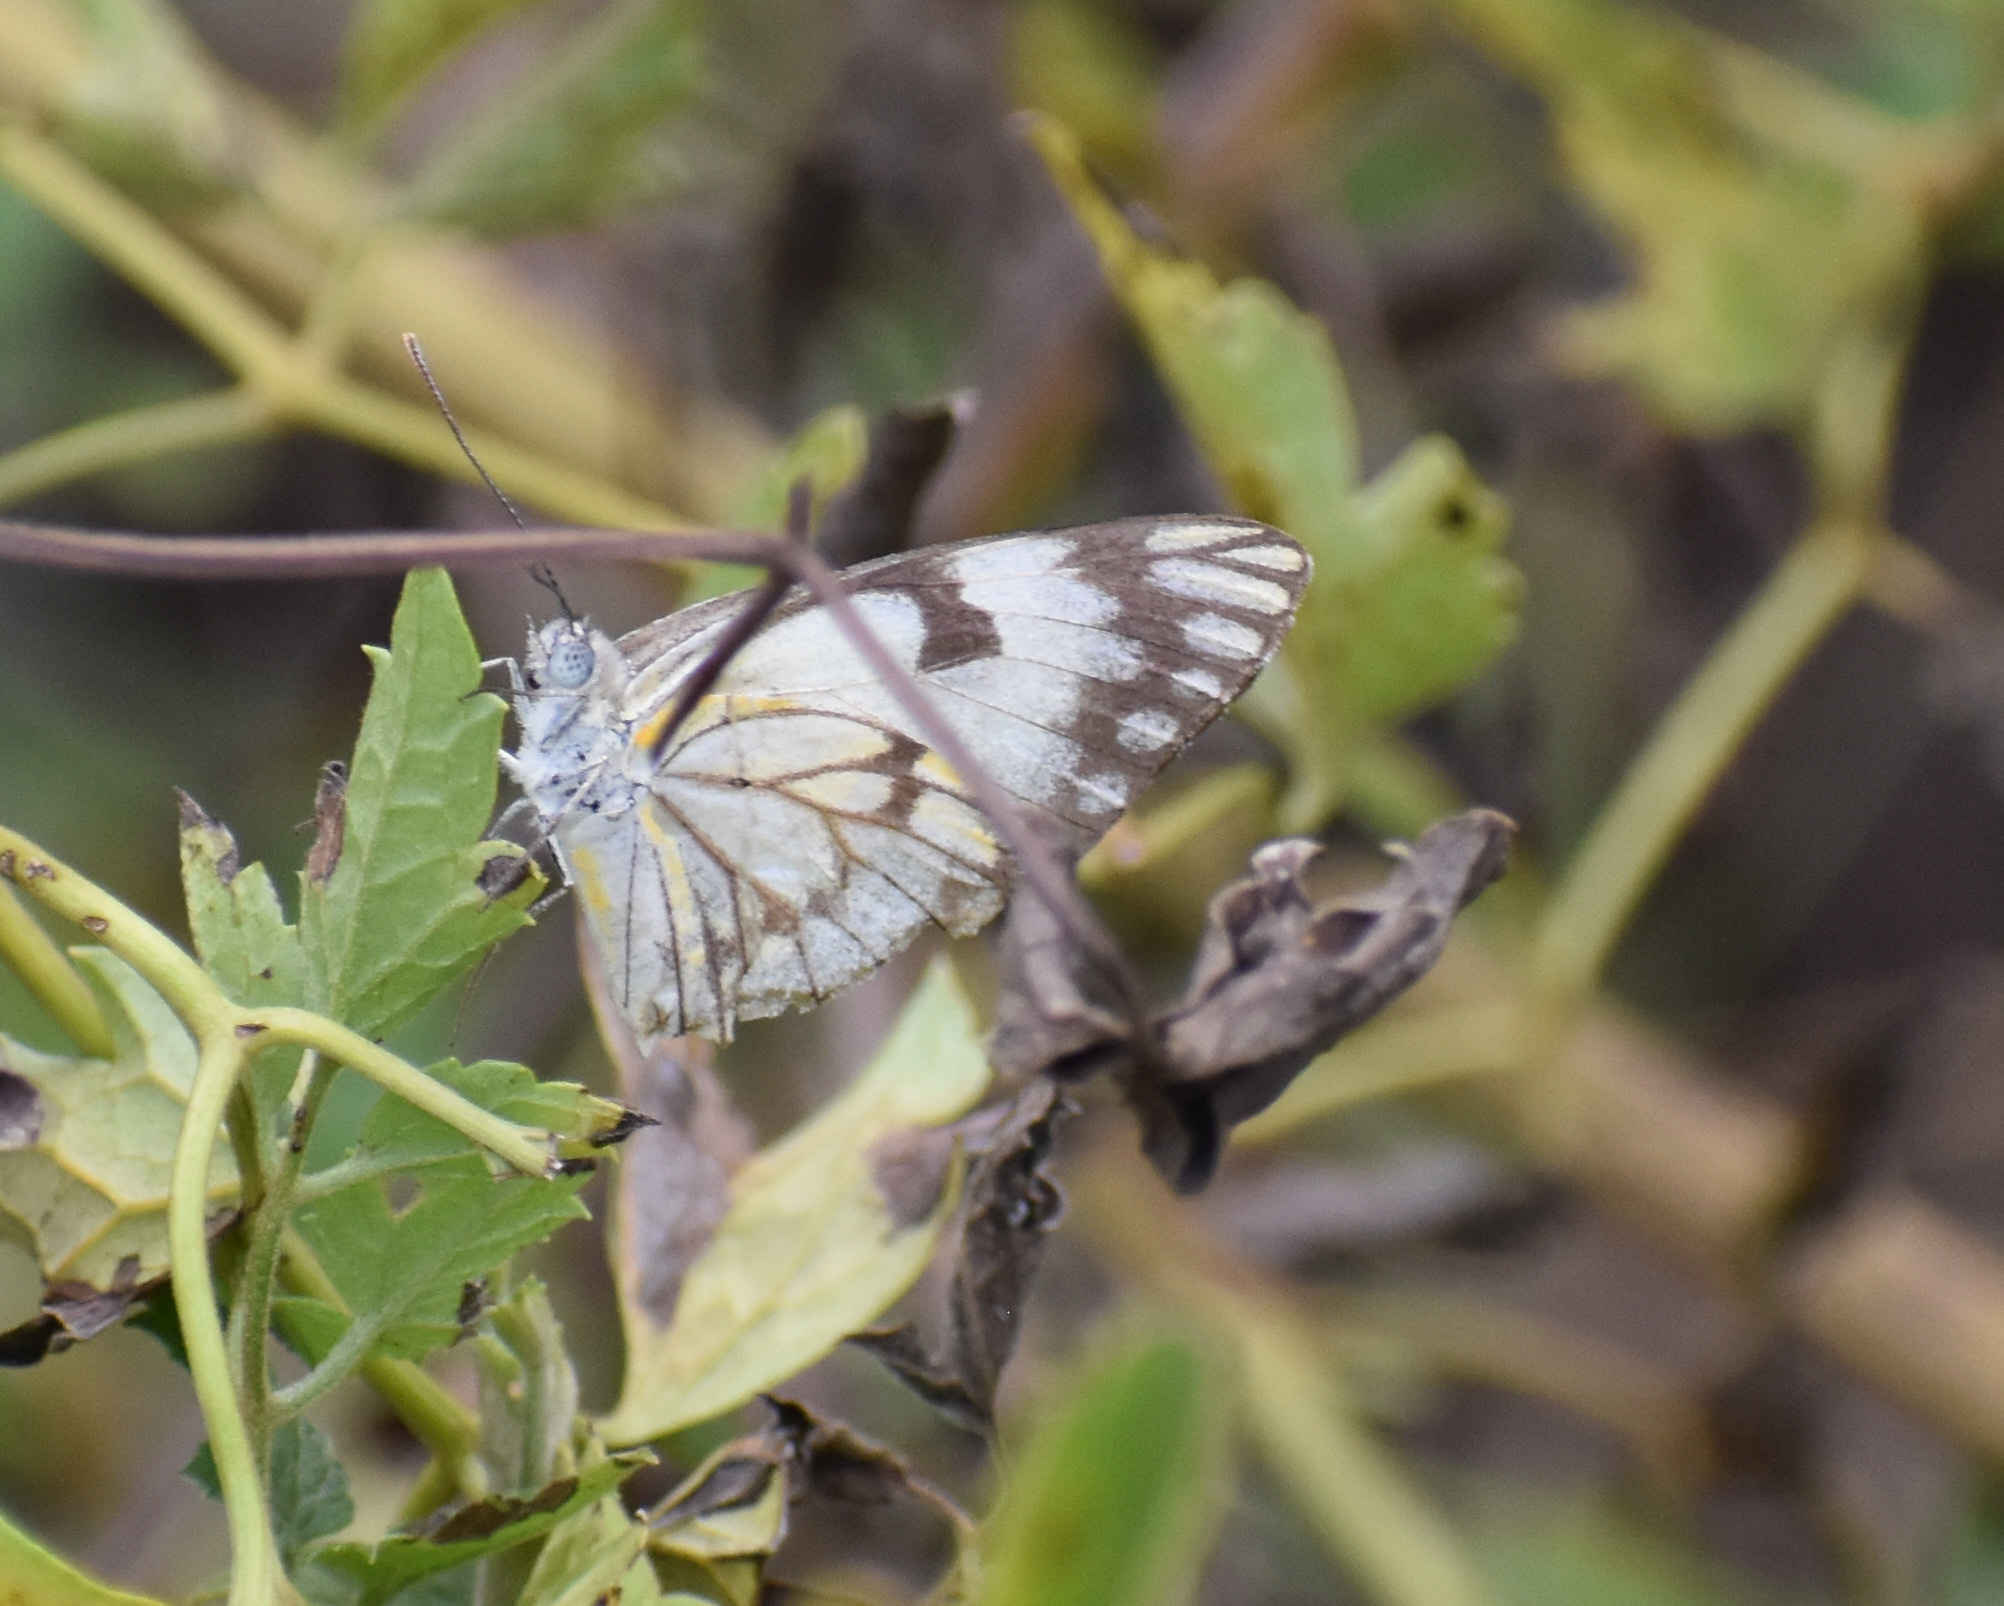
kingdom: Animalia
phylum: Arthropoda
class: Insecta
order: Lepidoptera
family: Pieridae
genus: Belenois
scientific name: Belenois aurota
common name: Brown-veined white
